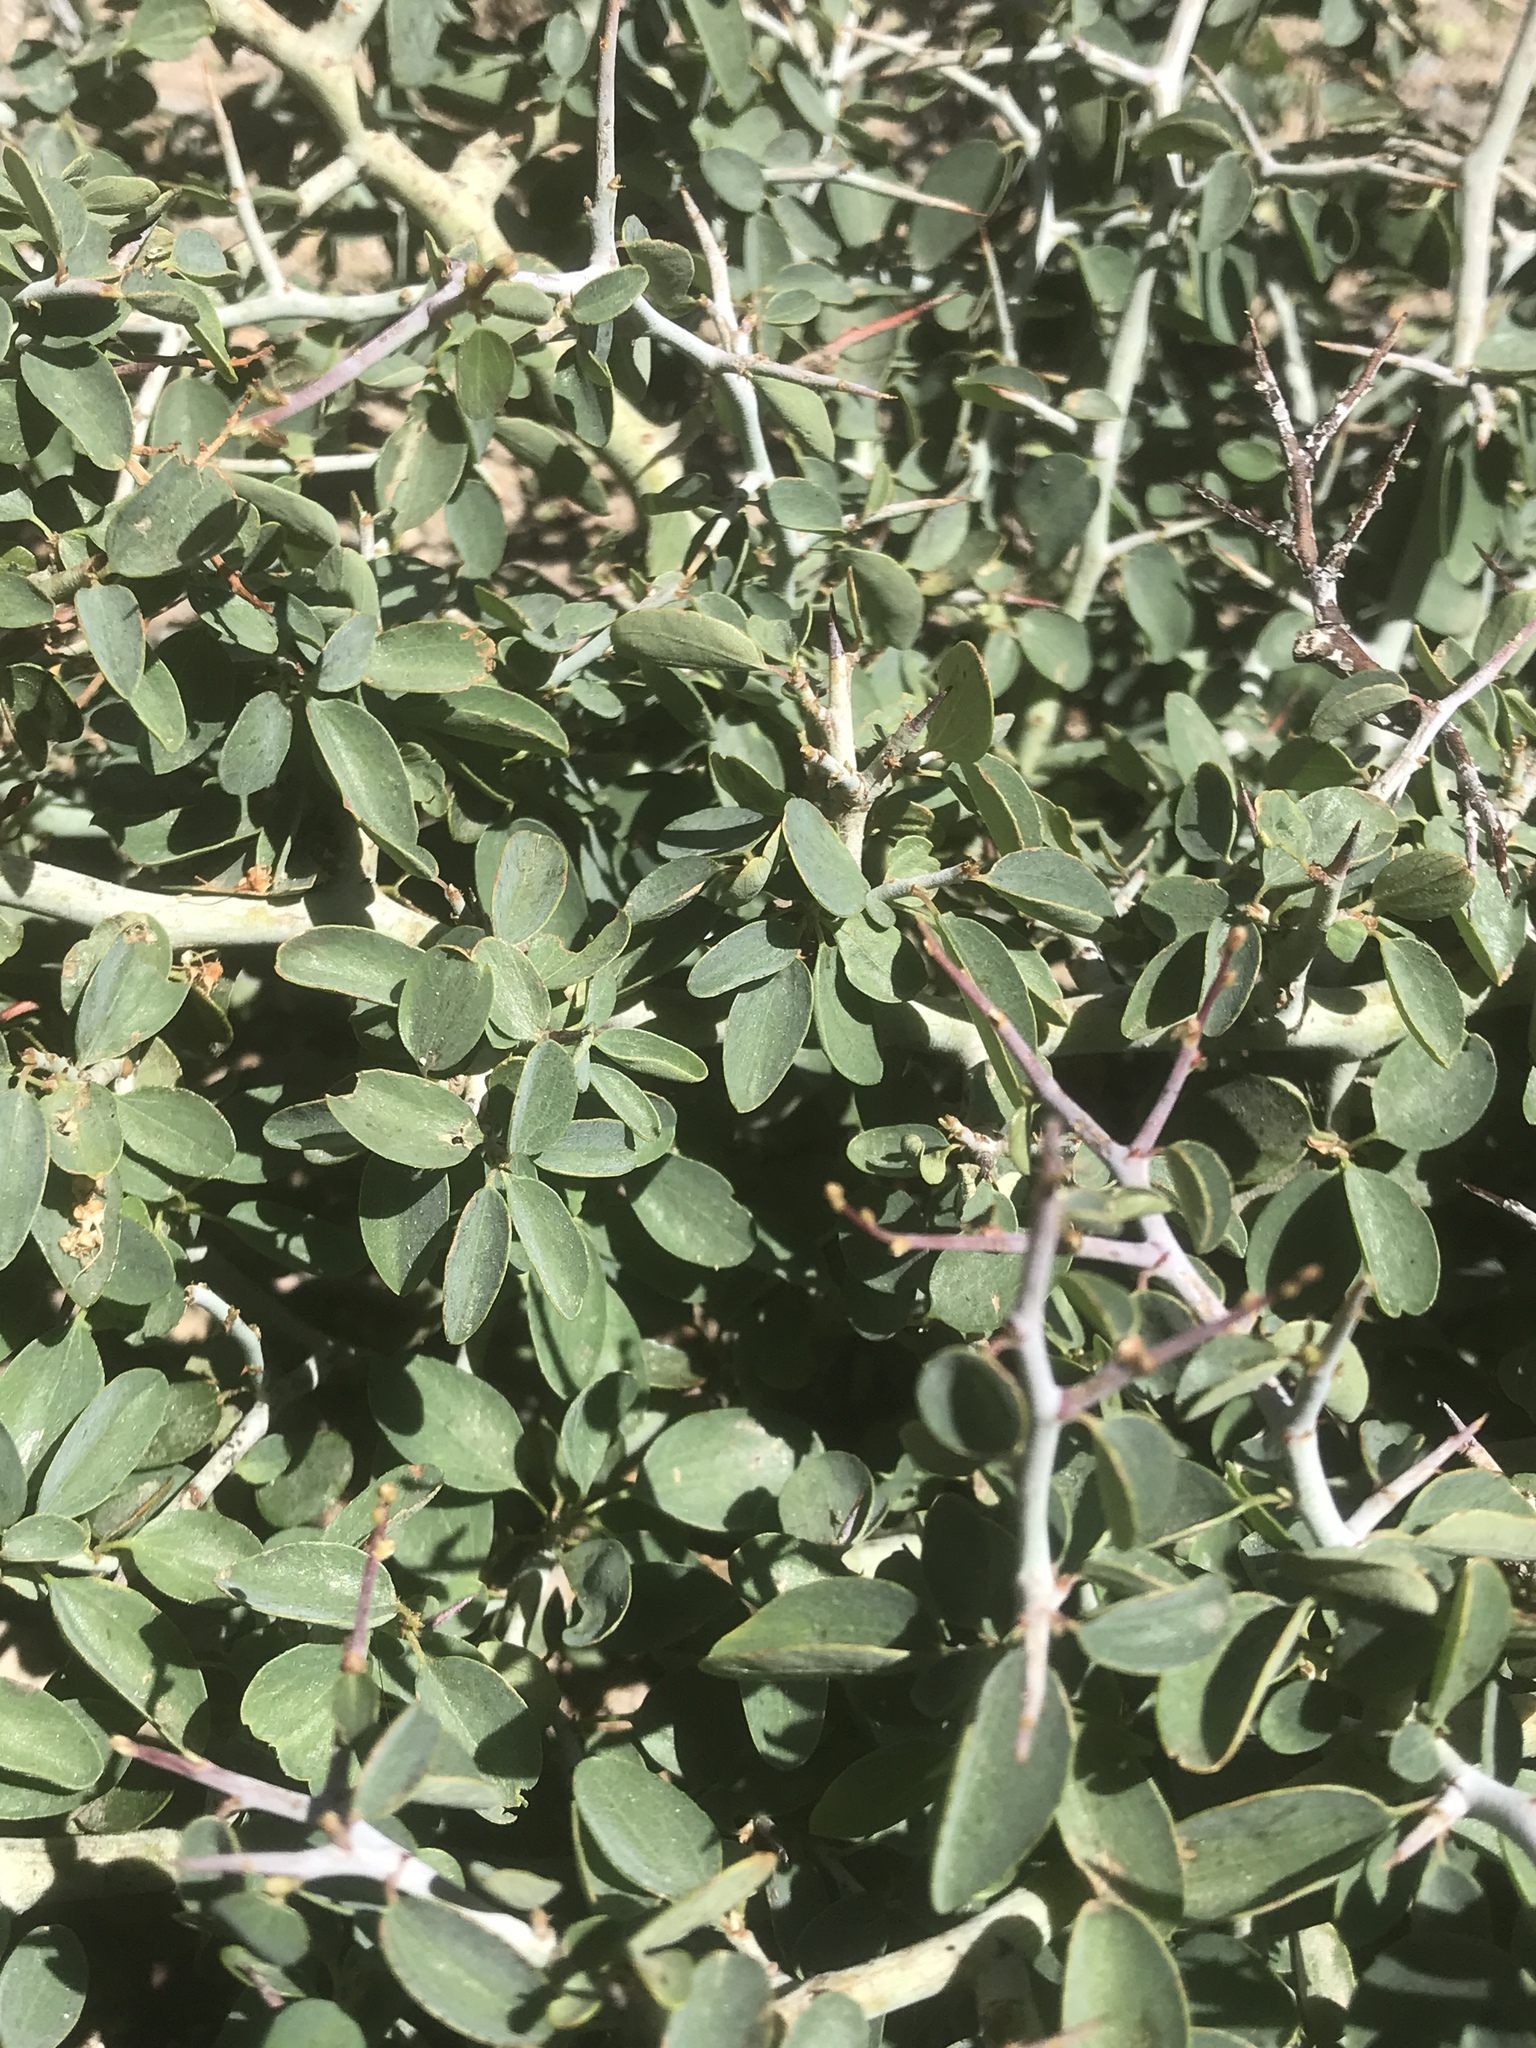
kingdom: Plantae
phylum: Tracheophyta
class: Magnoliopsida
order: Rosales
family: Rhamnaceae
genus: Ceanothus
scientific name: Ceanothus cordulatus
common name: Mountain whitethorn
